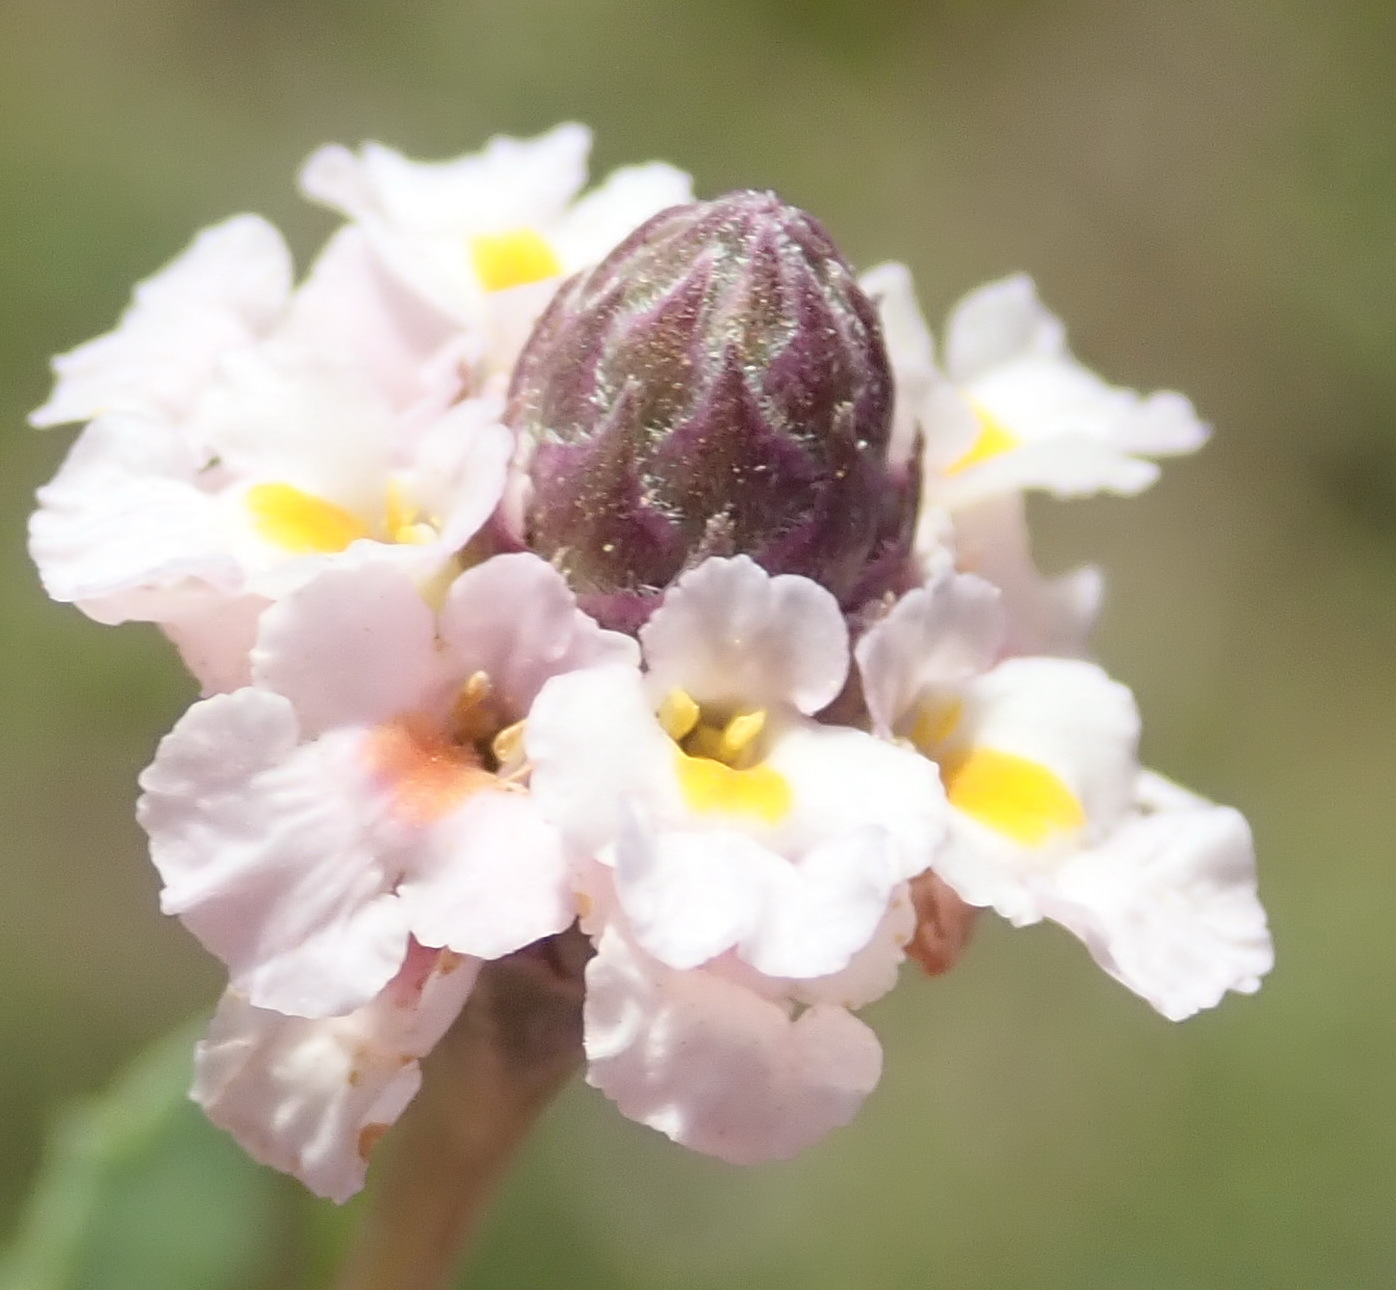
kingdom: Plantae
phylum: Tracheophyta
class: Magnoliopsida
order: Lamiales
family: Verbenaceae
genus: Phyla
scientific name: Phyla nodiflora
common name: Frogfruit
